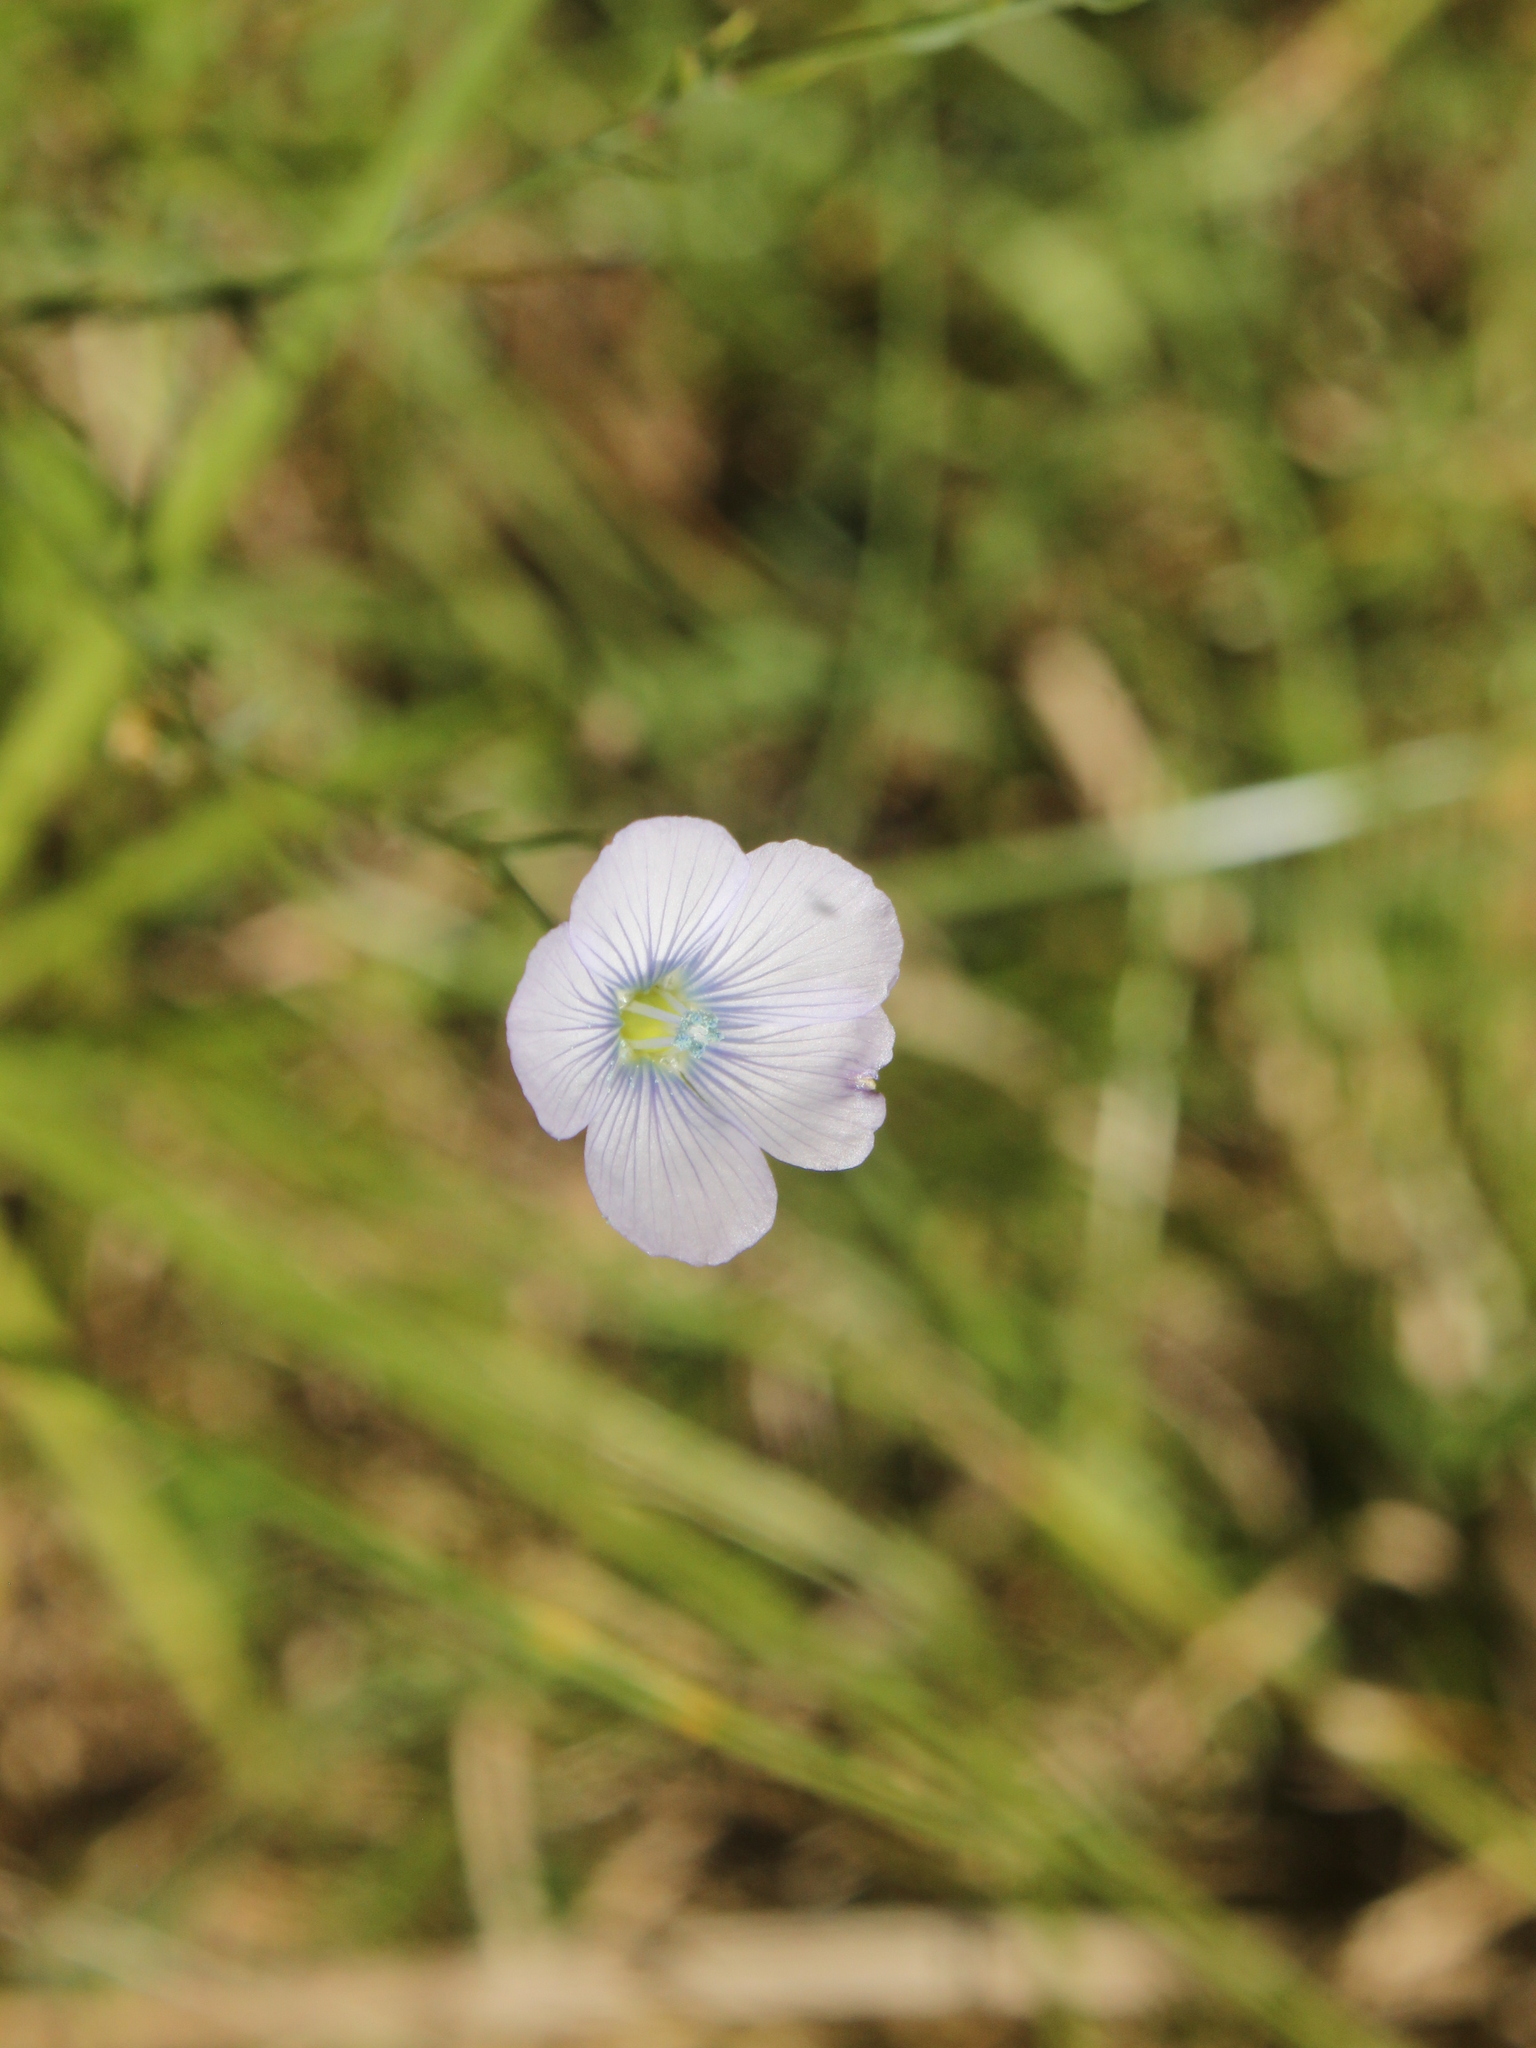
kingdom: Plantae
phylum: Tracheophyta
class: Magnoliopsida
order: Malpighiales
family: Linaceae
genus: Linum
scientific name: Linum bienne
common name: Pale flax
